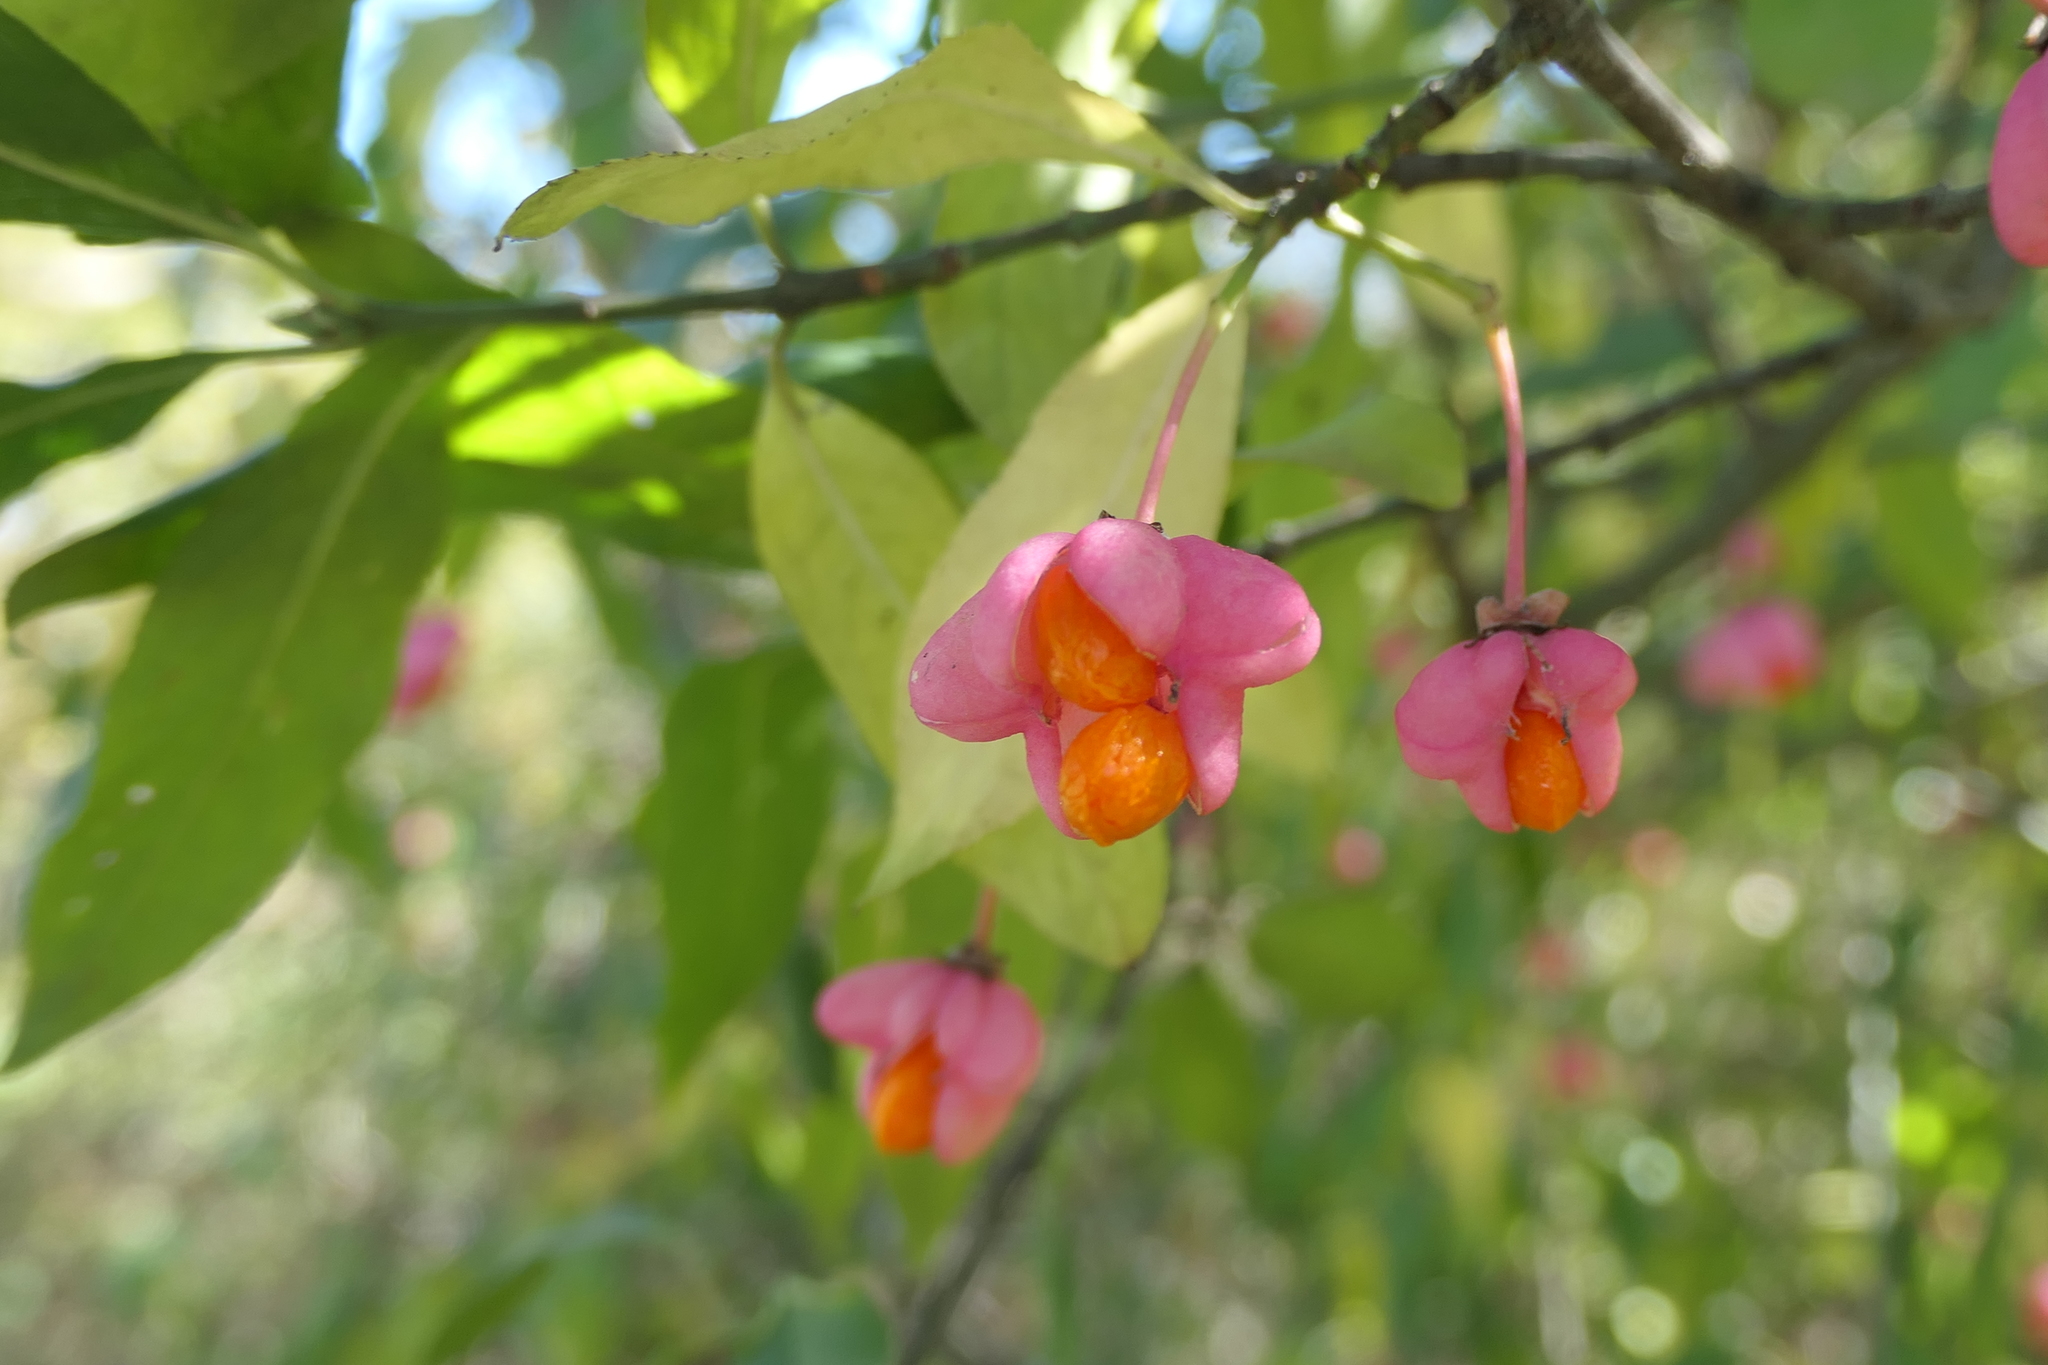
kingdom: Plantae
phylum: Tracheophyta
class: Magnoliopsida
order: Celastrales
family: Celastraceae
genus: Euonymus
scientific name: Euonymus europaeus
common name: Spindle
